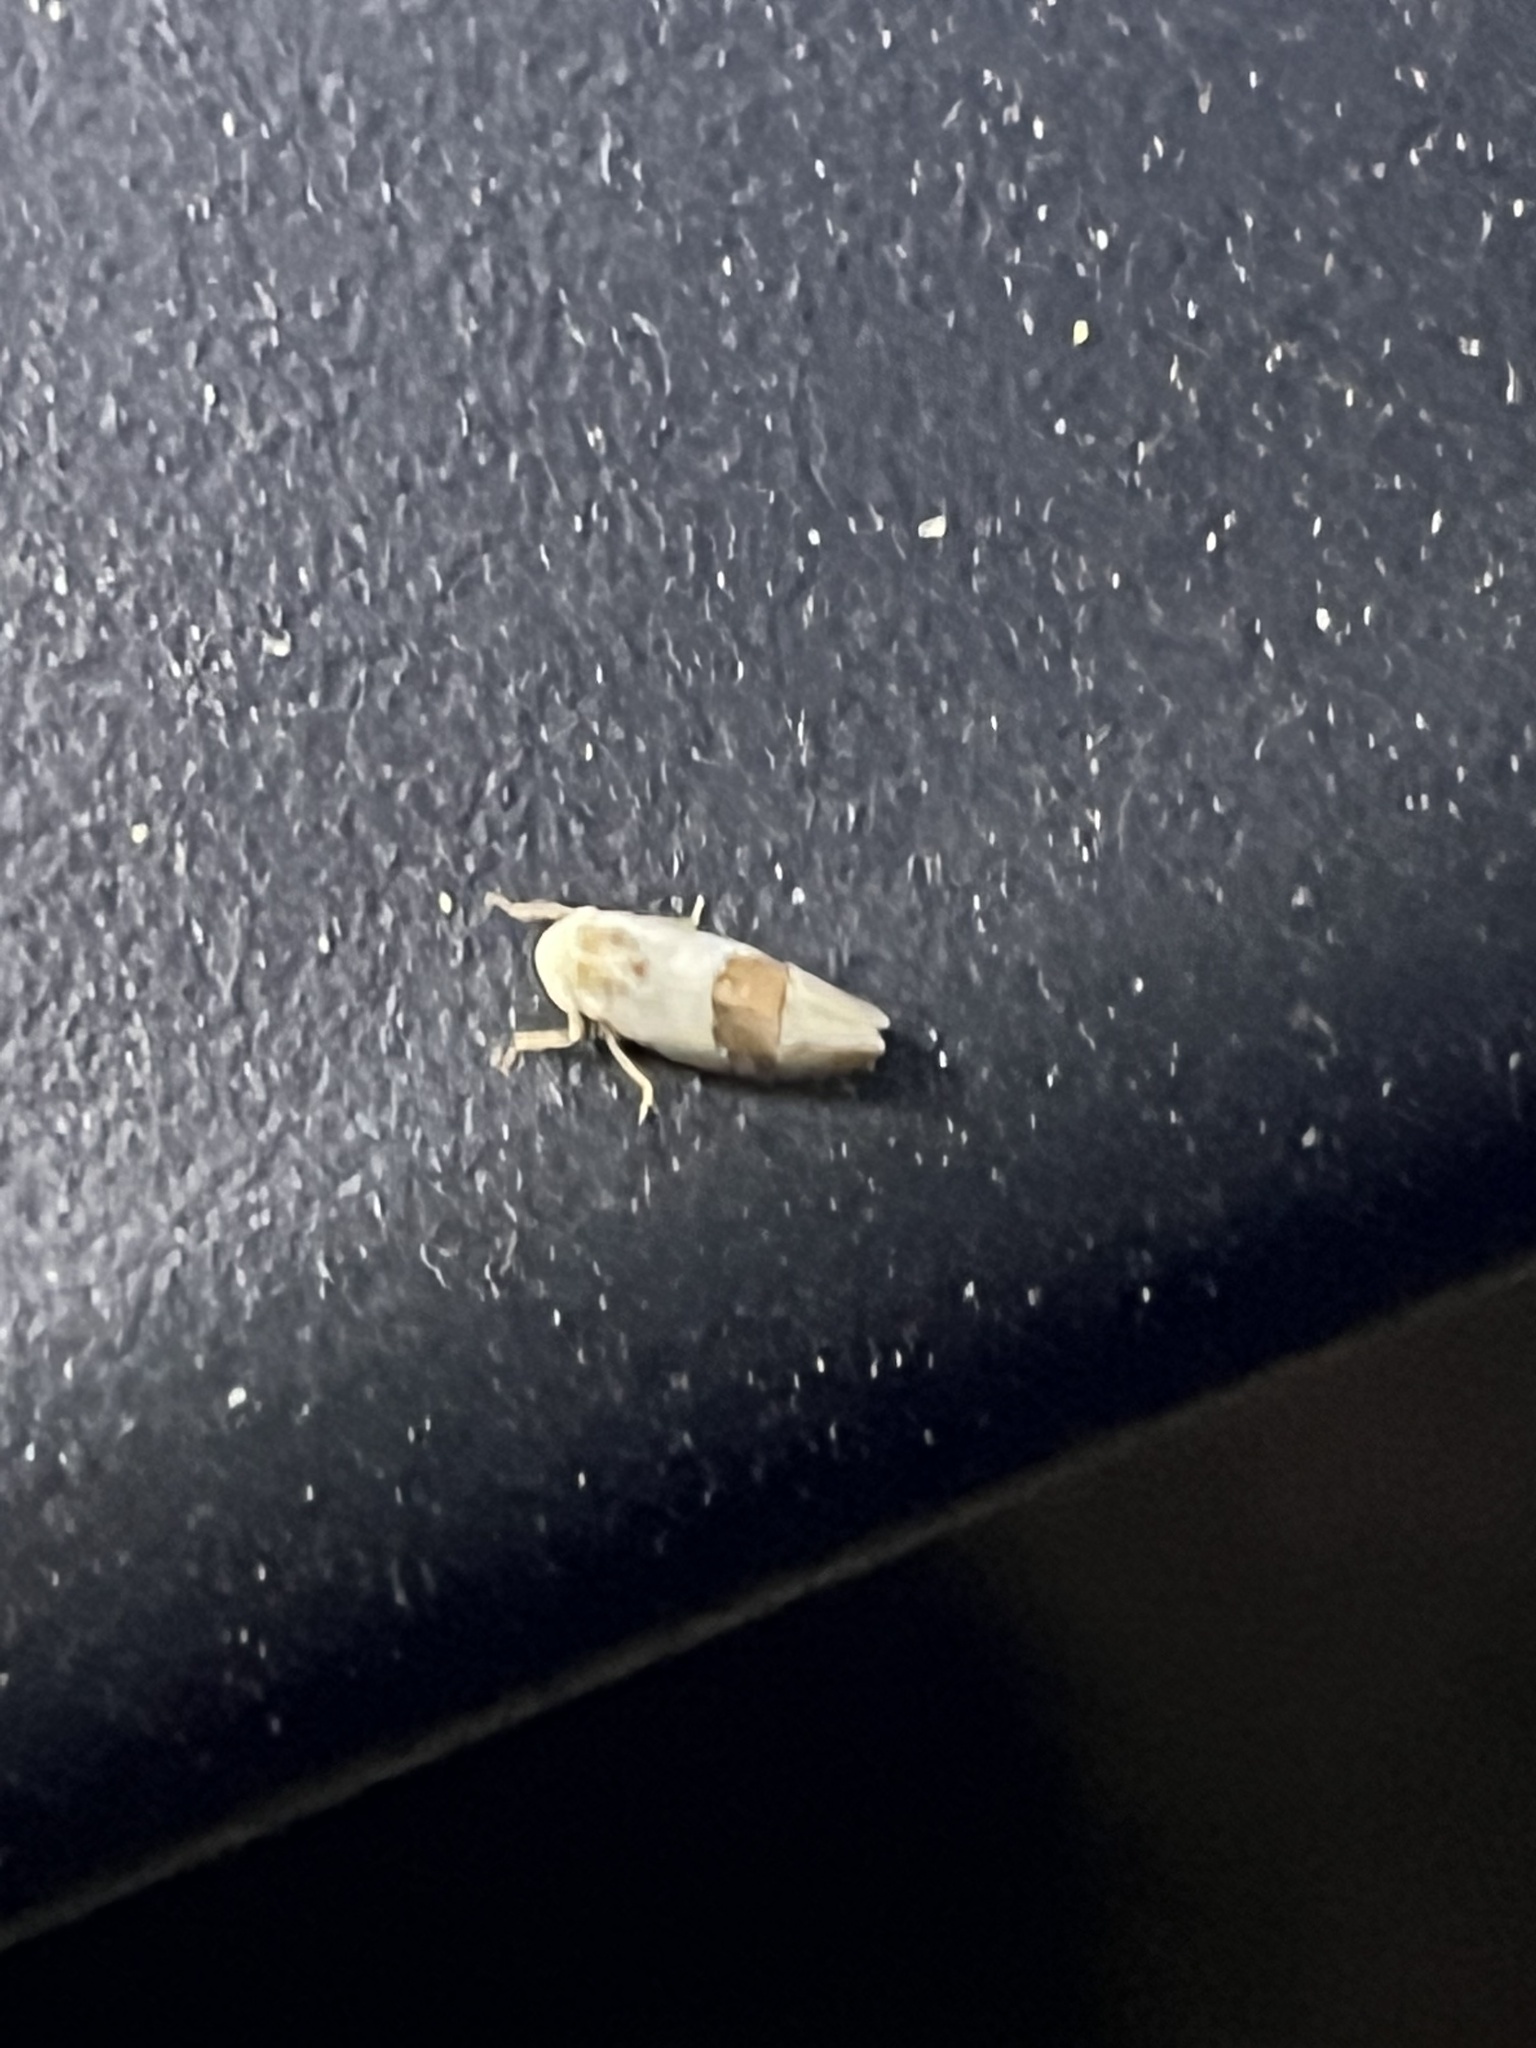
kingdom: Animalia
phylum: Arthropoda
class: Insecta
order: Hemiptera
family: Cicadellidae
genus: Norvellina
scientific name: Norvellina seminuda
